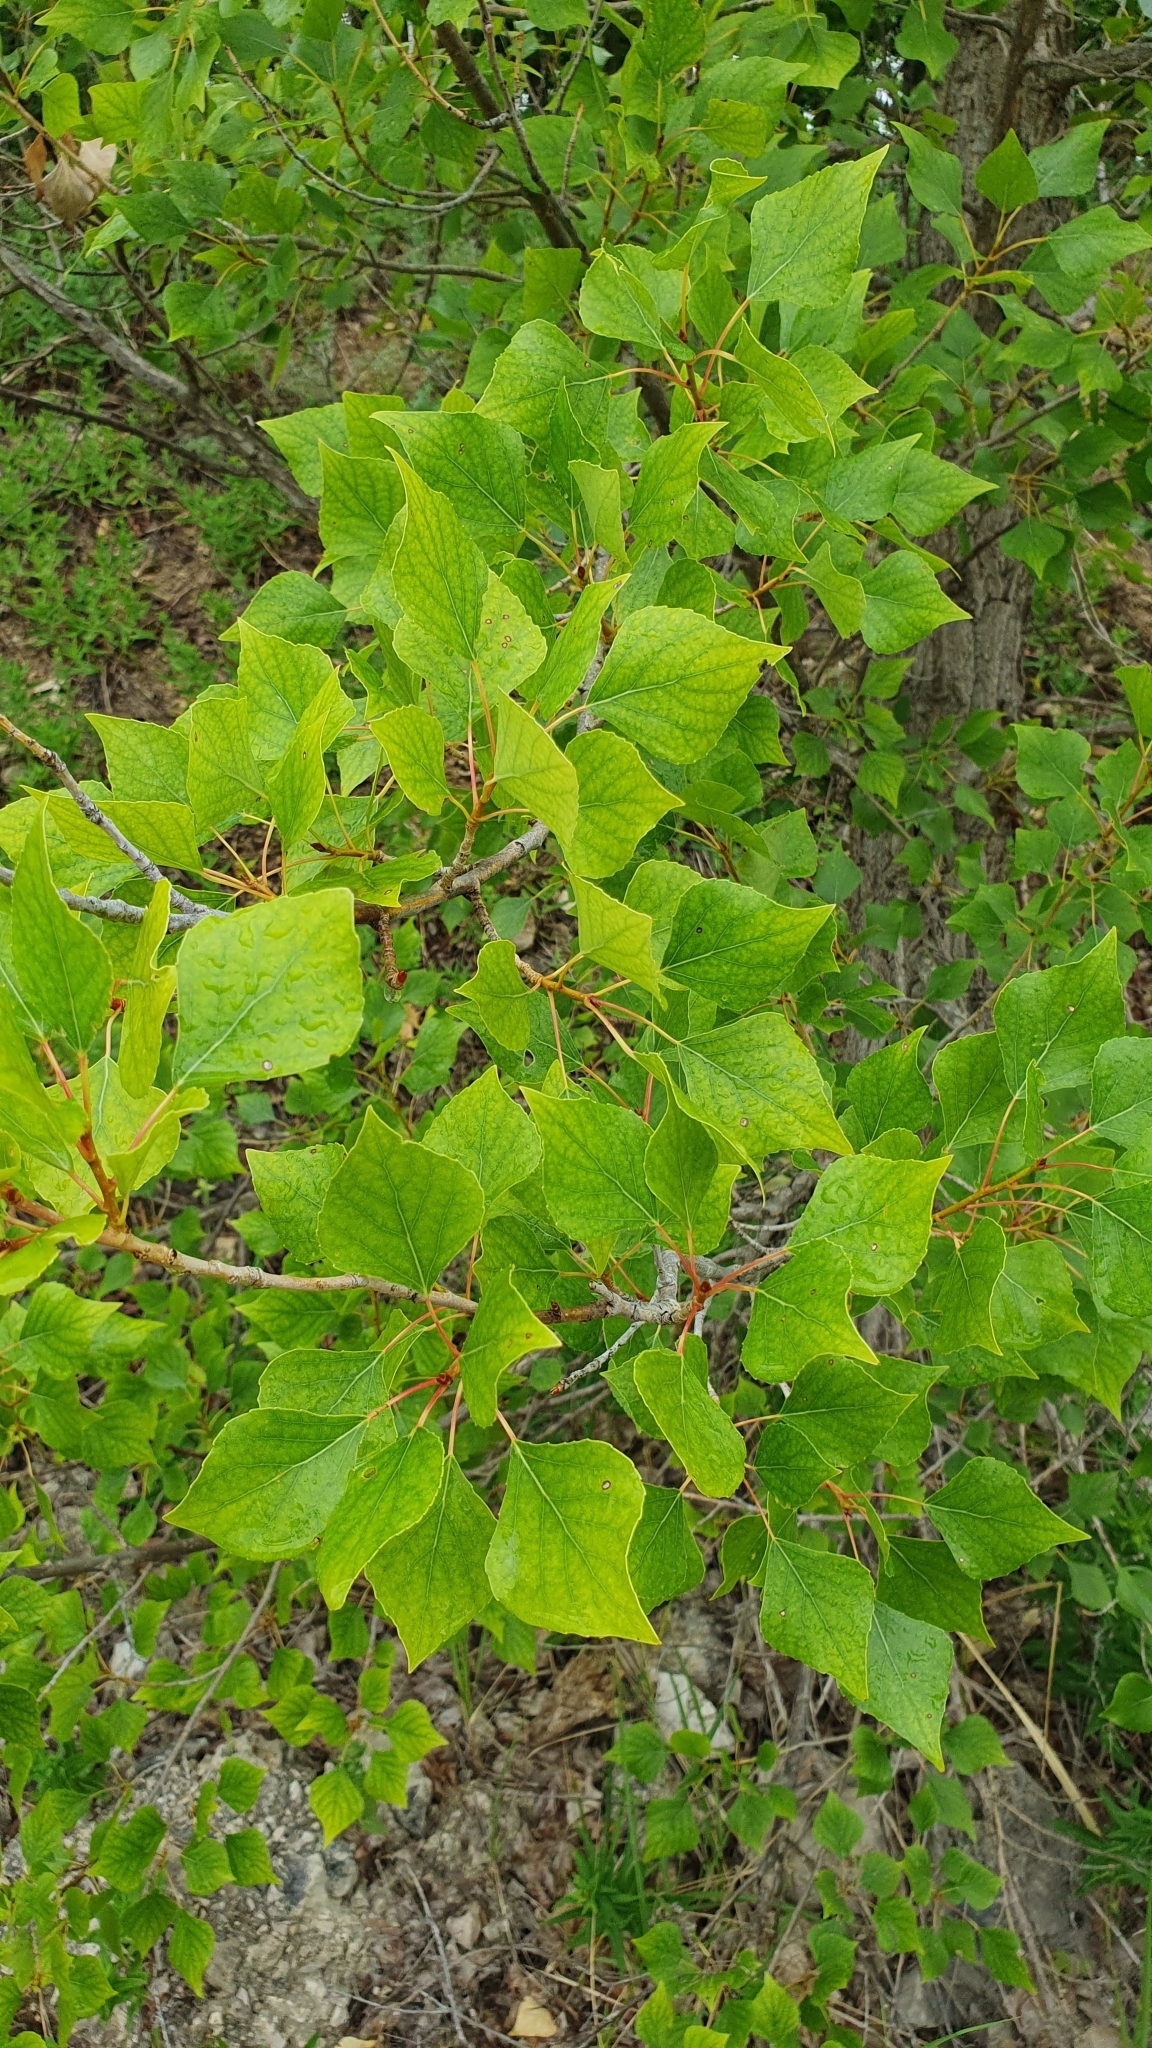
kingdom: Plantae
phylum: Tracheophyta
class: Magnoliopsida
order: Malpighiales
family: Salicaceae
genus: Populus
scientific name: Populus nigra
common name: Black poplar
